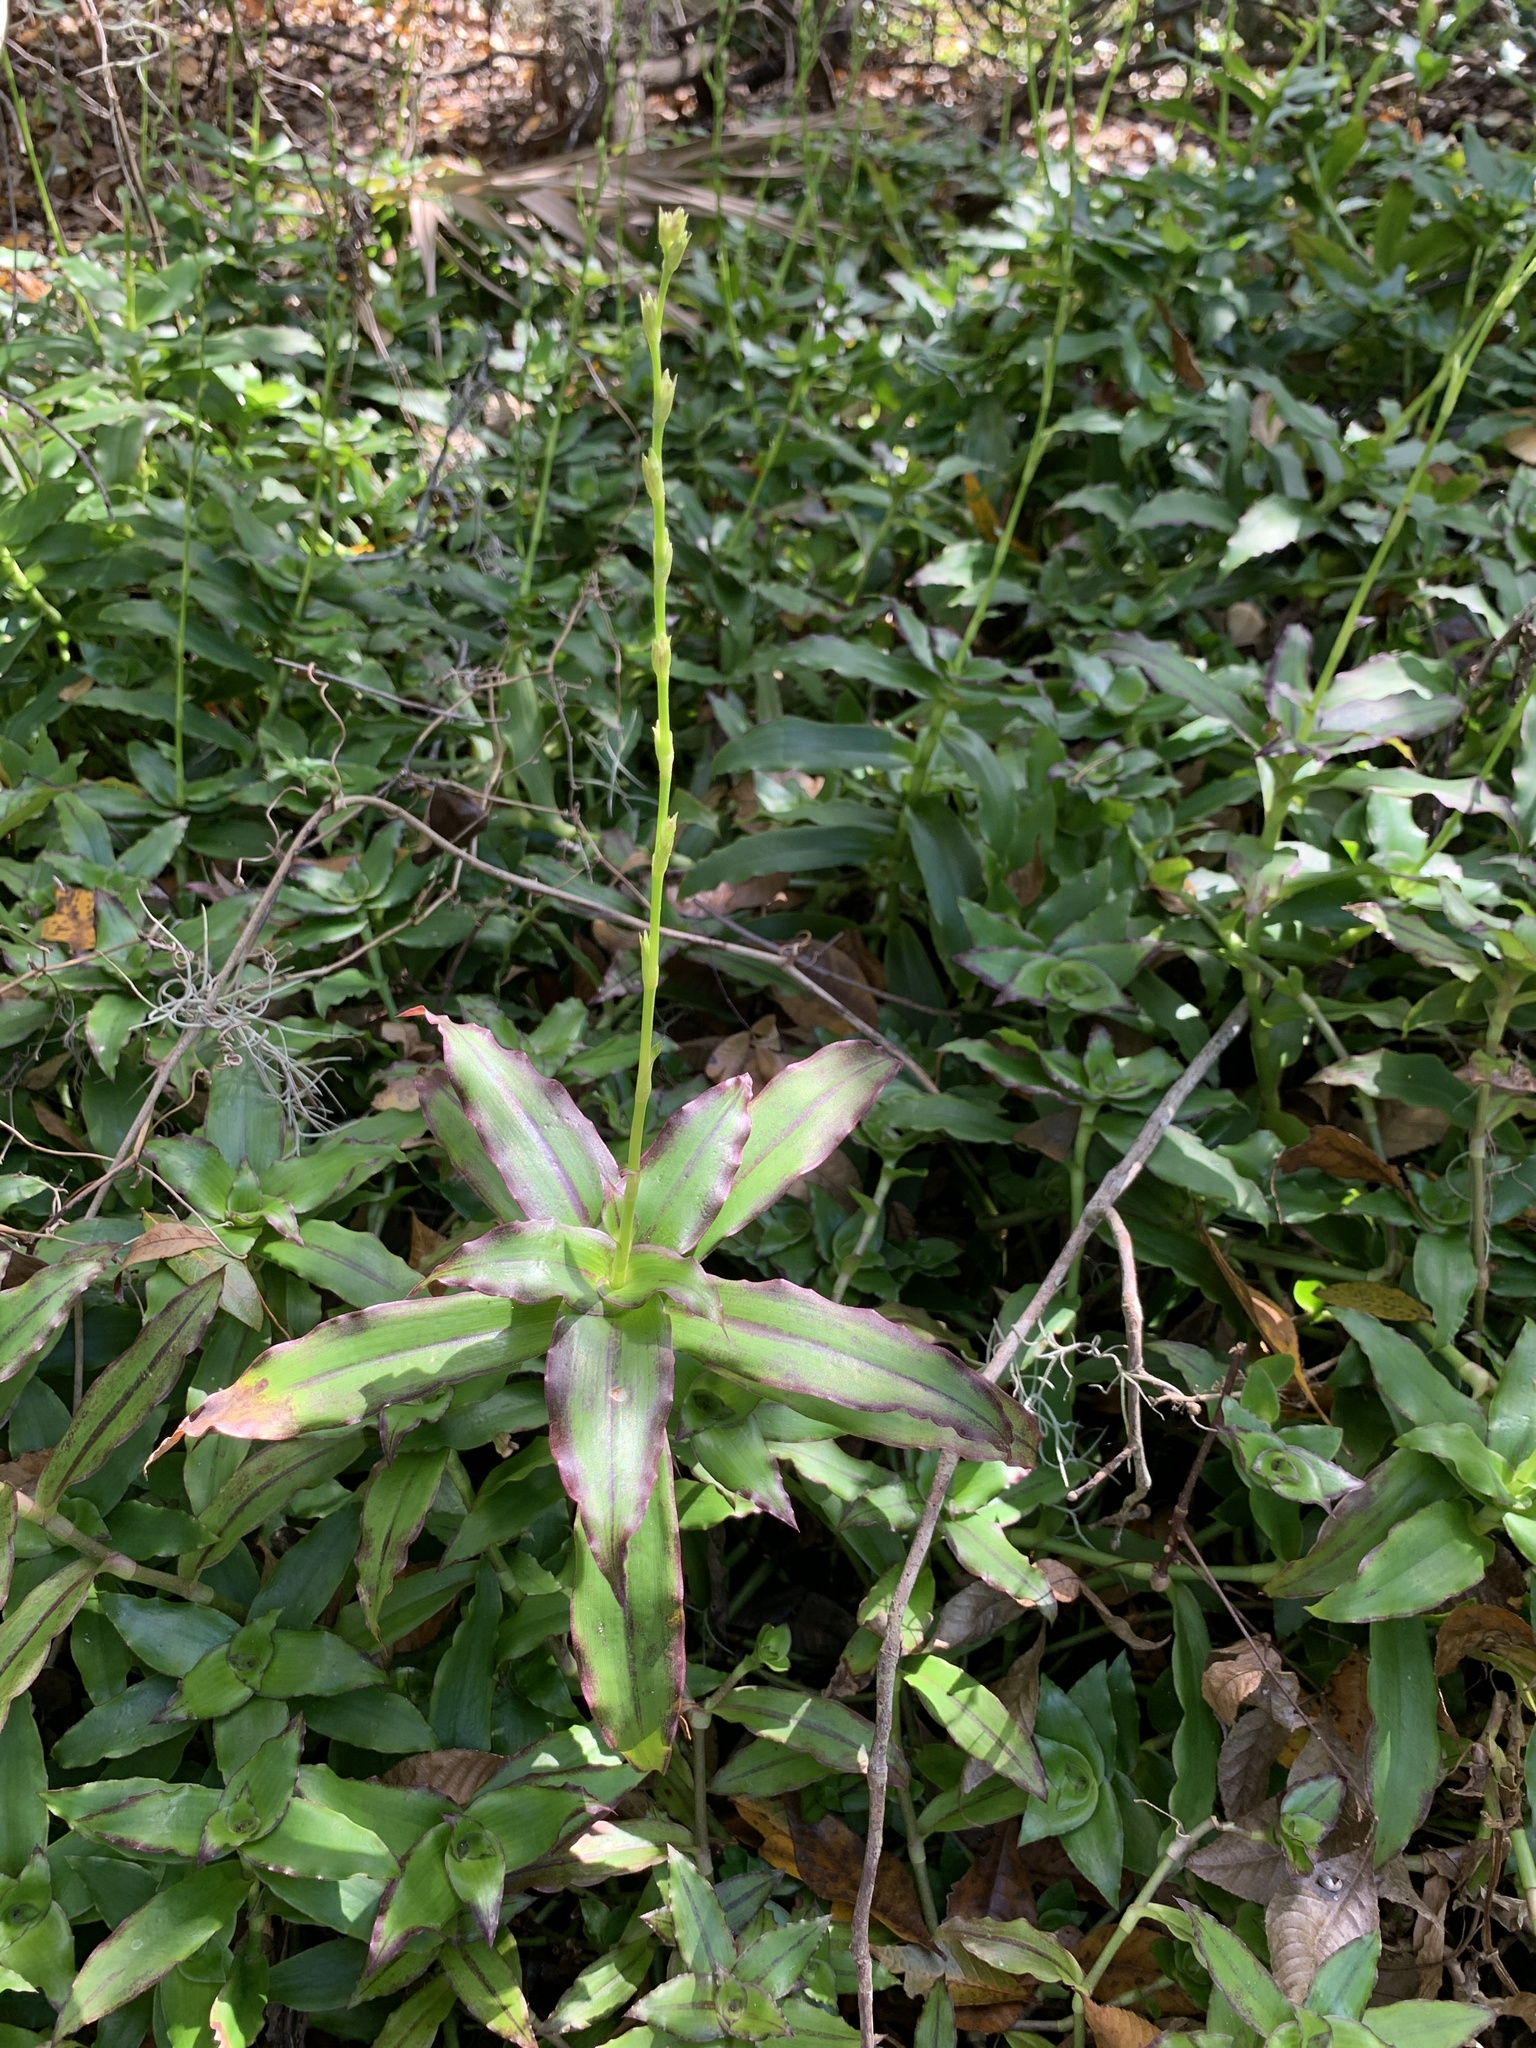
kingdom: Plantae
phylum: Tracheophyta
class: Liliopsida
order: Commelinales
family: Commelinaceae
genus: Callisia
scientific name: Callisia fragrans
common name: Basketplant
